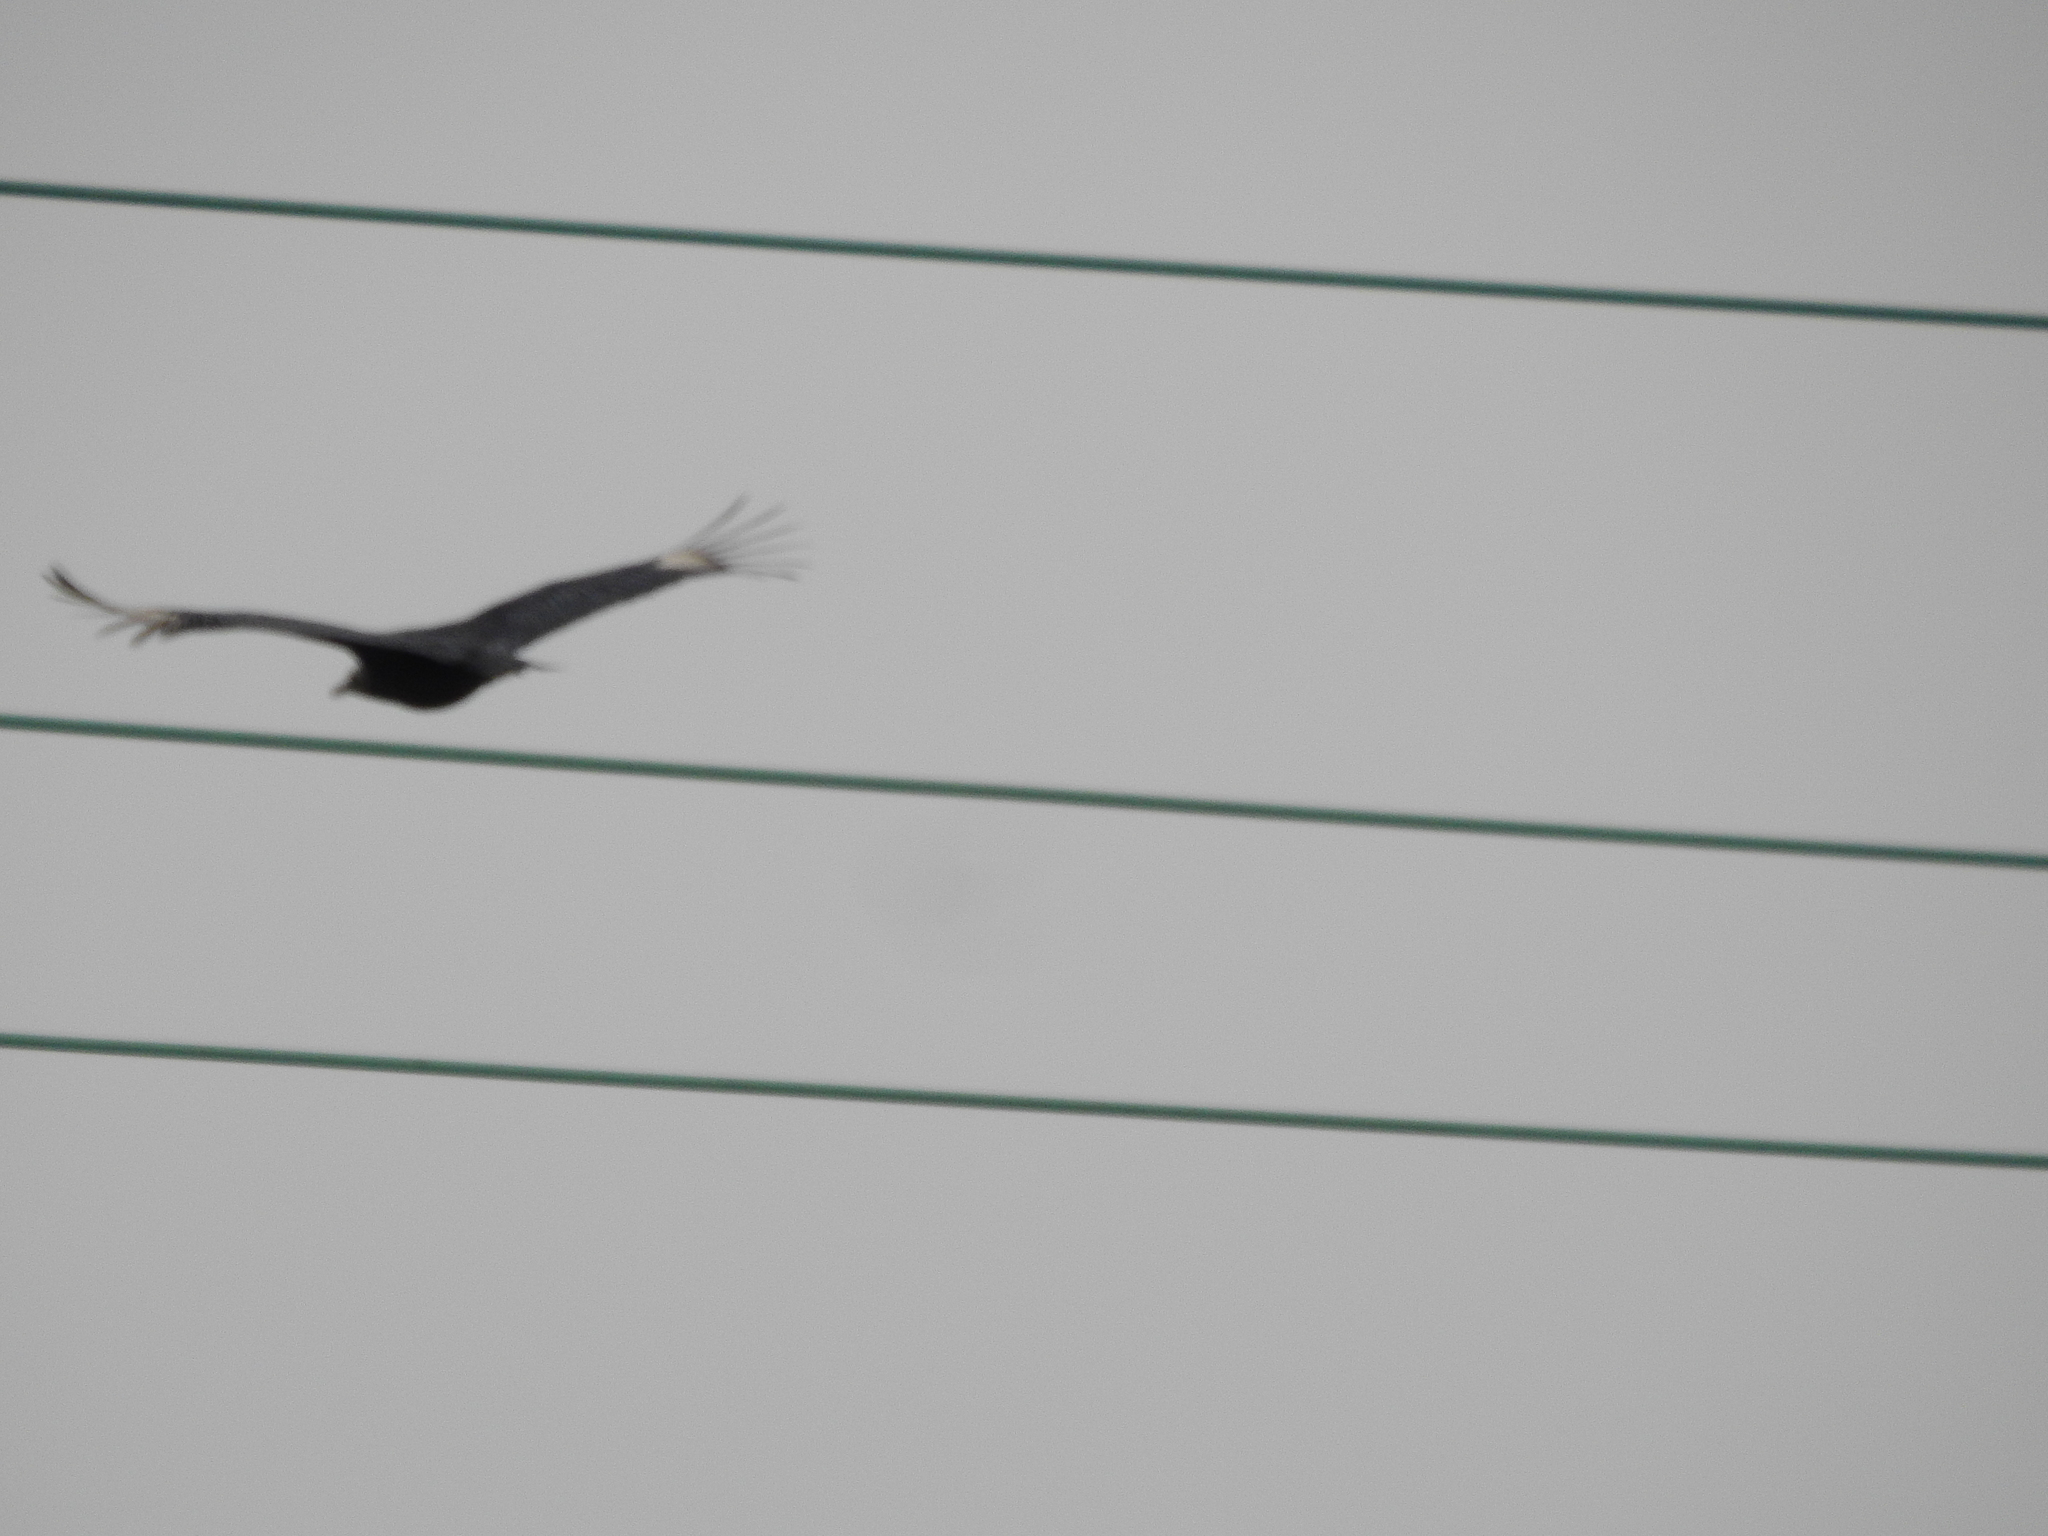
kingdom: Animalia
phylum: Chordata
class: Aves
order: Accipitriformes
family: Cathartidae
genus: Coragyps
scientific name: Coragyps atratus
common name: Black vulture
